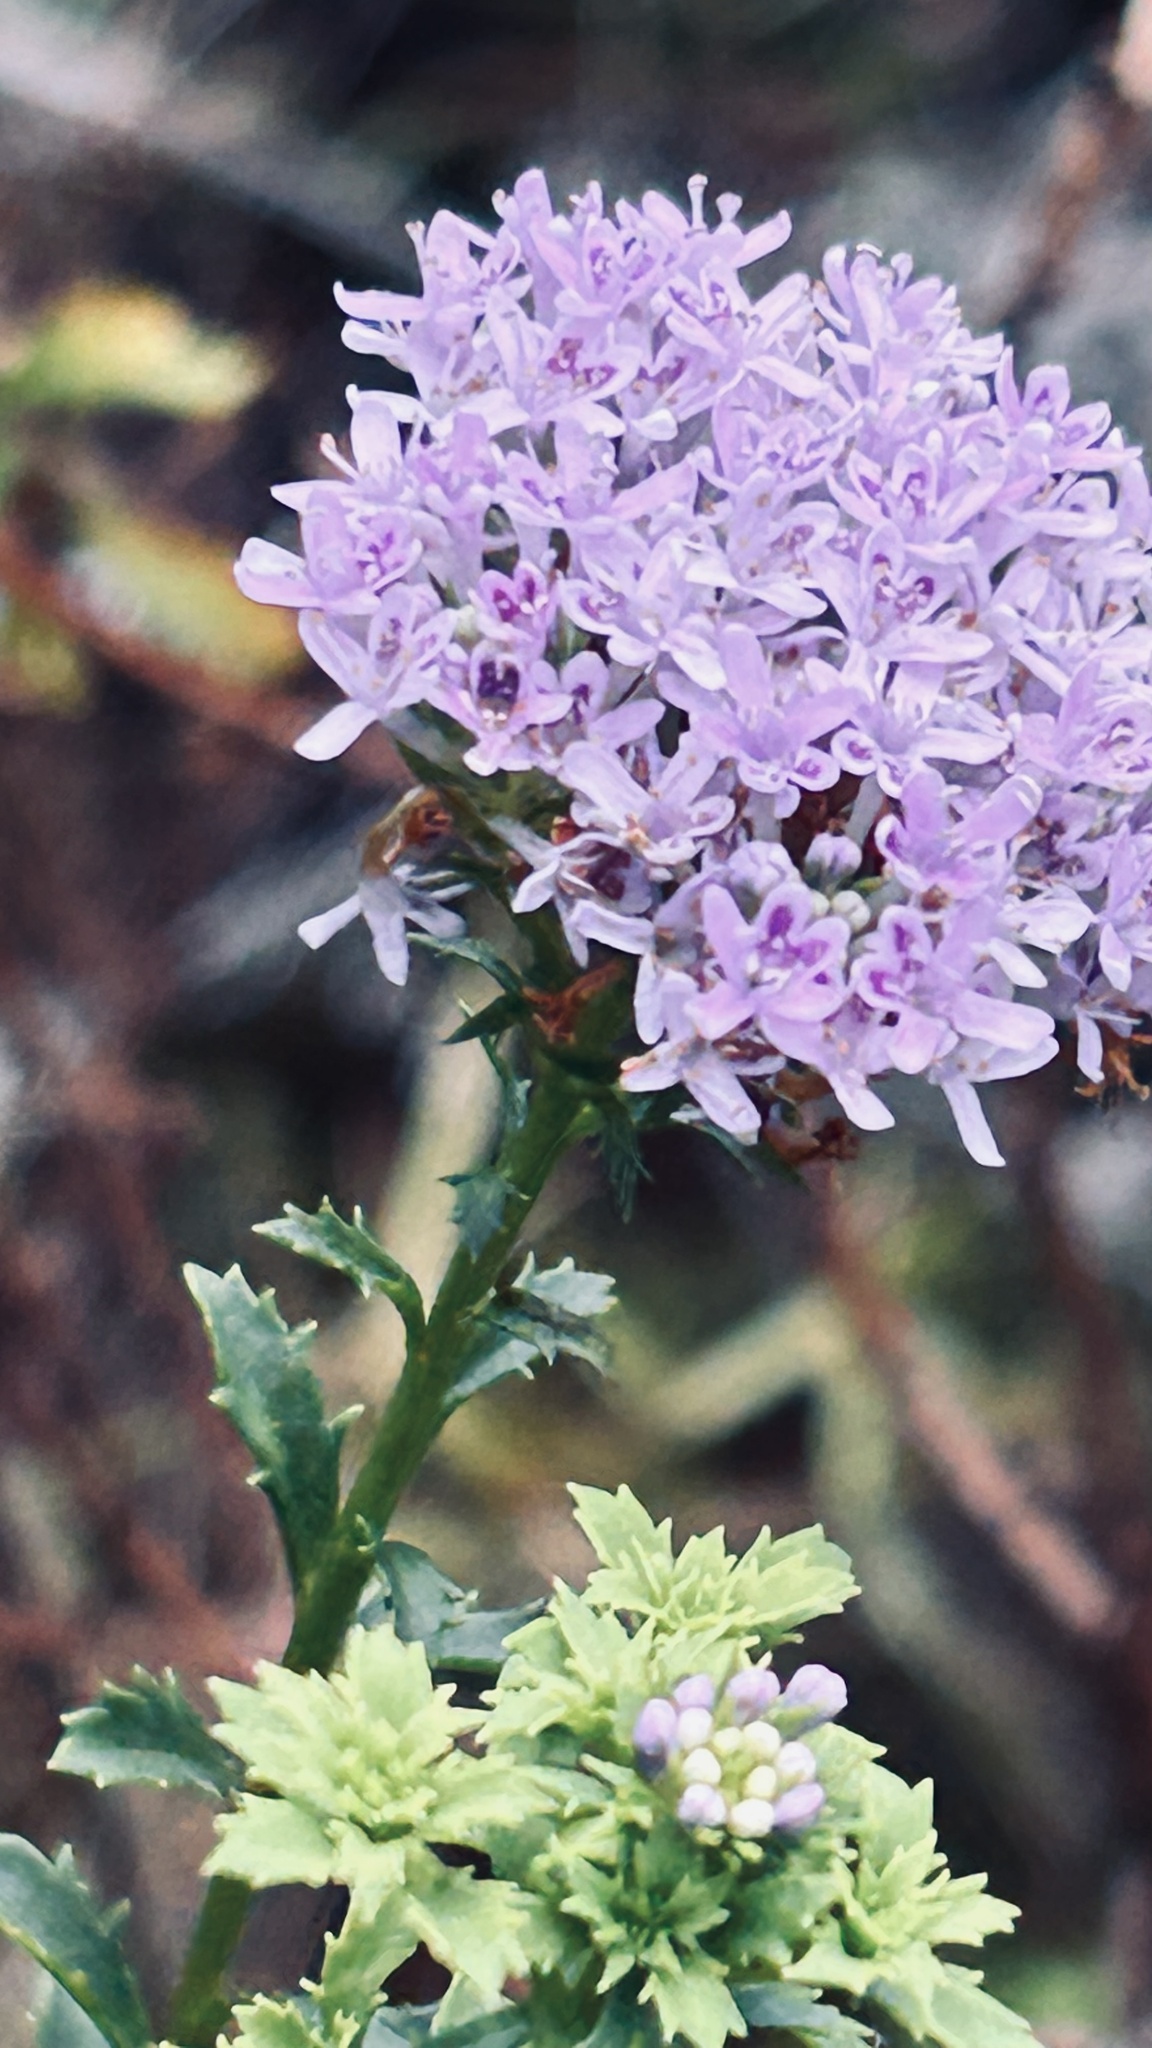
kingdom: Plantae
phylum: Tracheophyta
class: Magnoliopsida
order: Lamiales
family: Scrophulariaceae
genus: Pseudoselago
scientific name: Pseudoselago langebergensis
